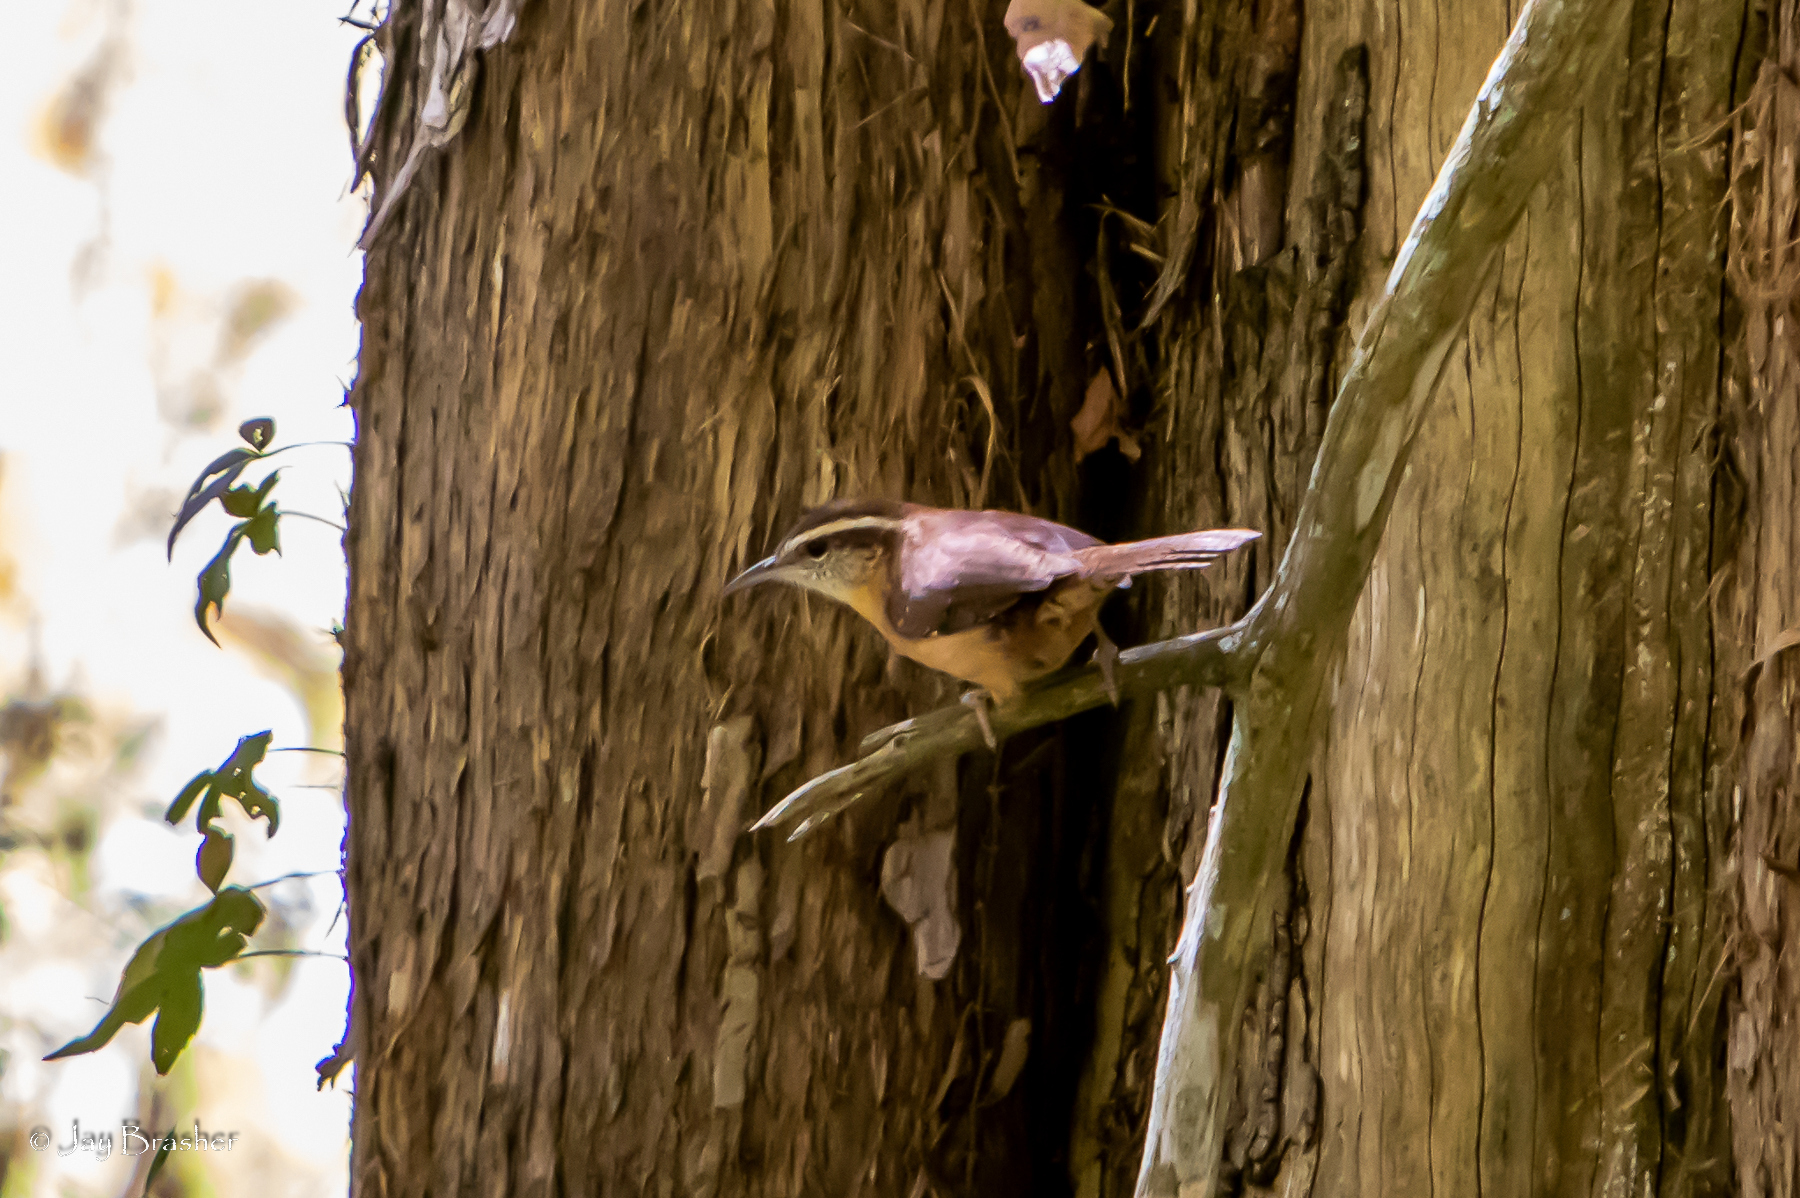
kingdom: Animalia
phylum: Chordata
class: Aves
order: Passeriformes
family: Troglodytidae
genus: Thryothorus
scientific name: Thryothorus ludovicianus
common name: Carolina wren
